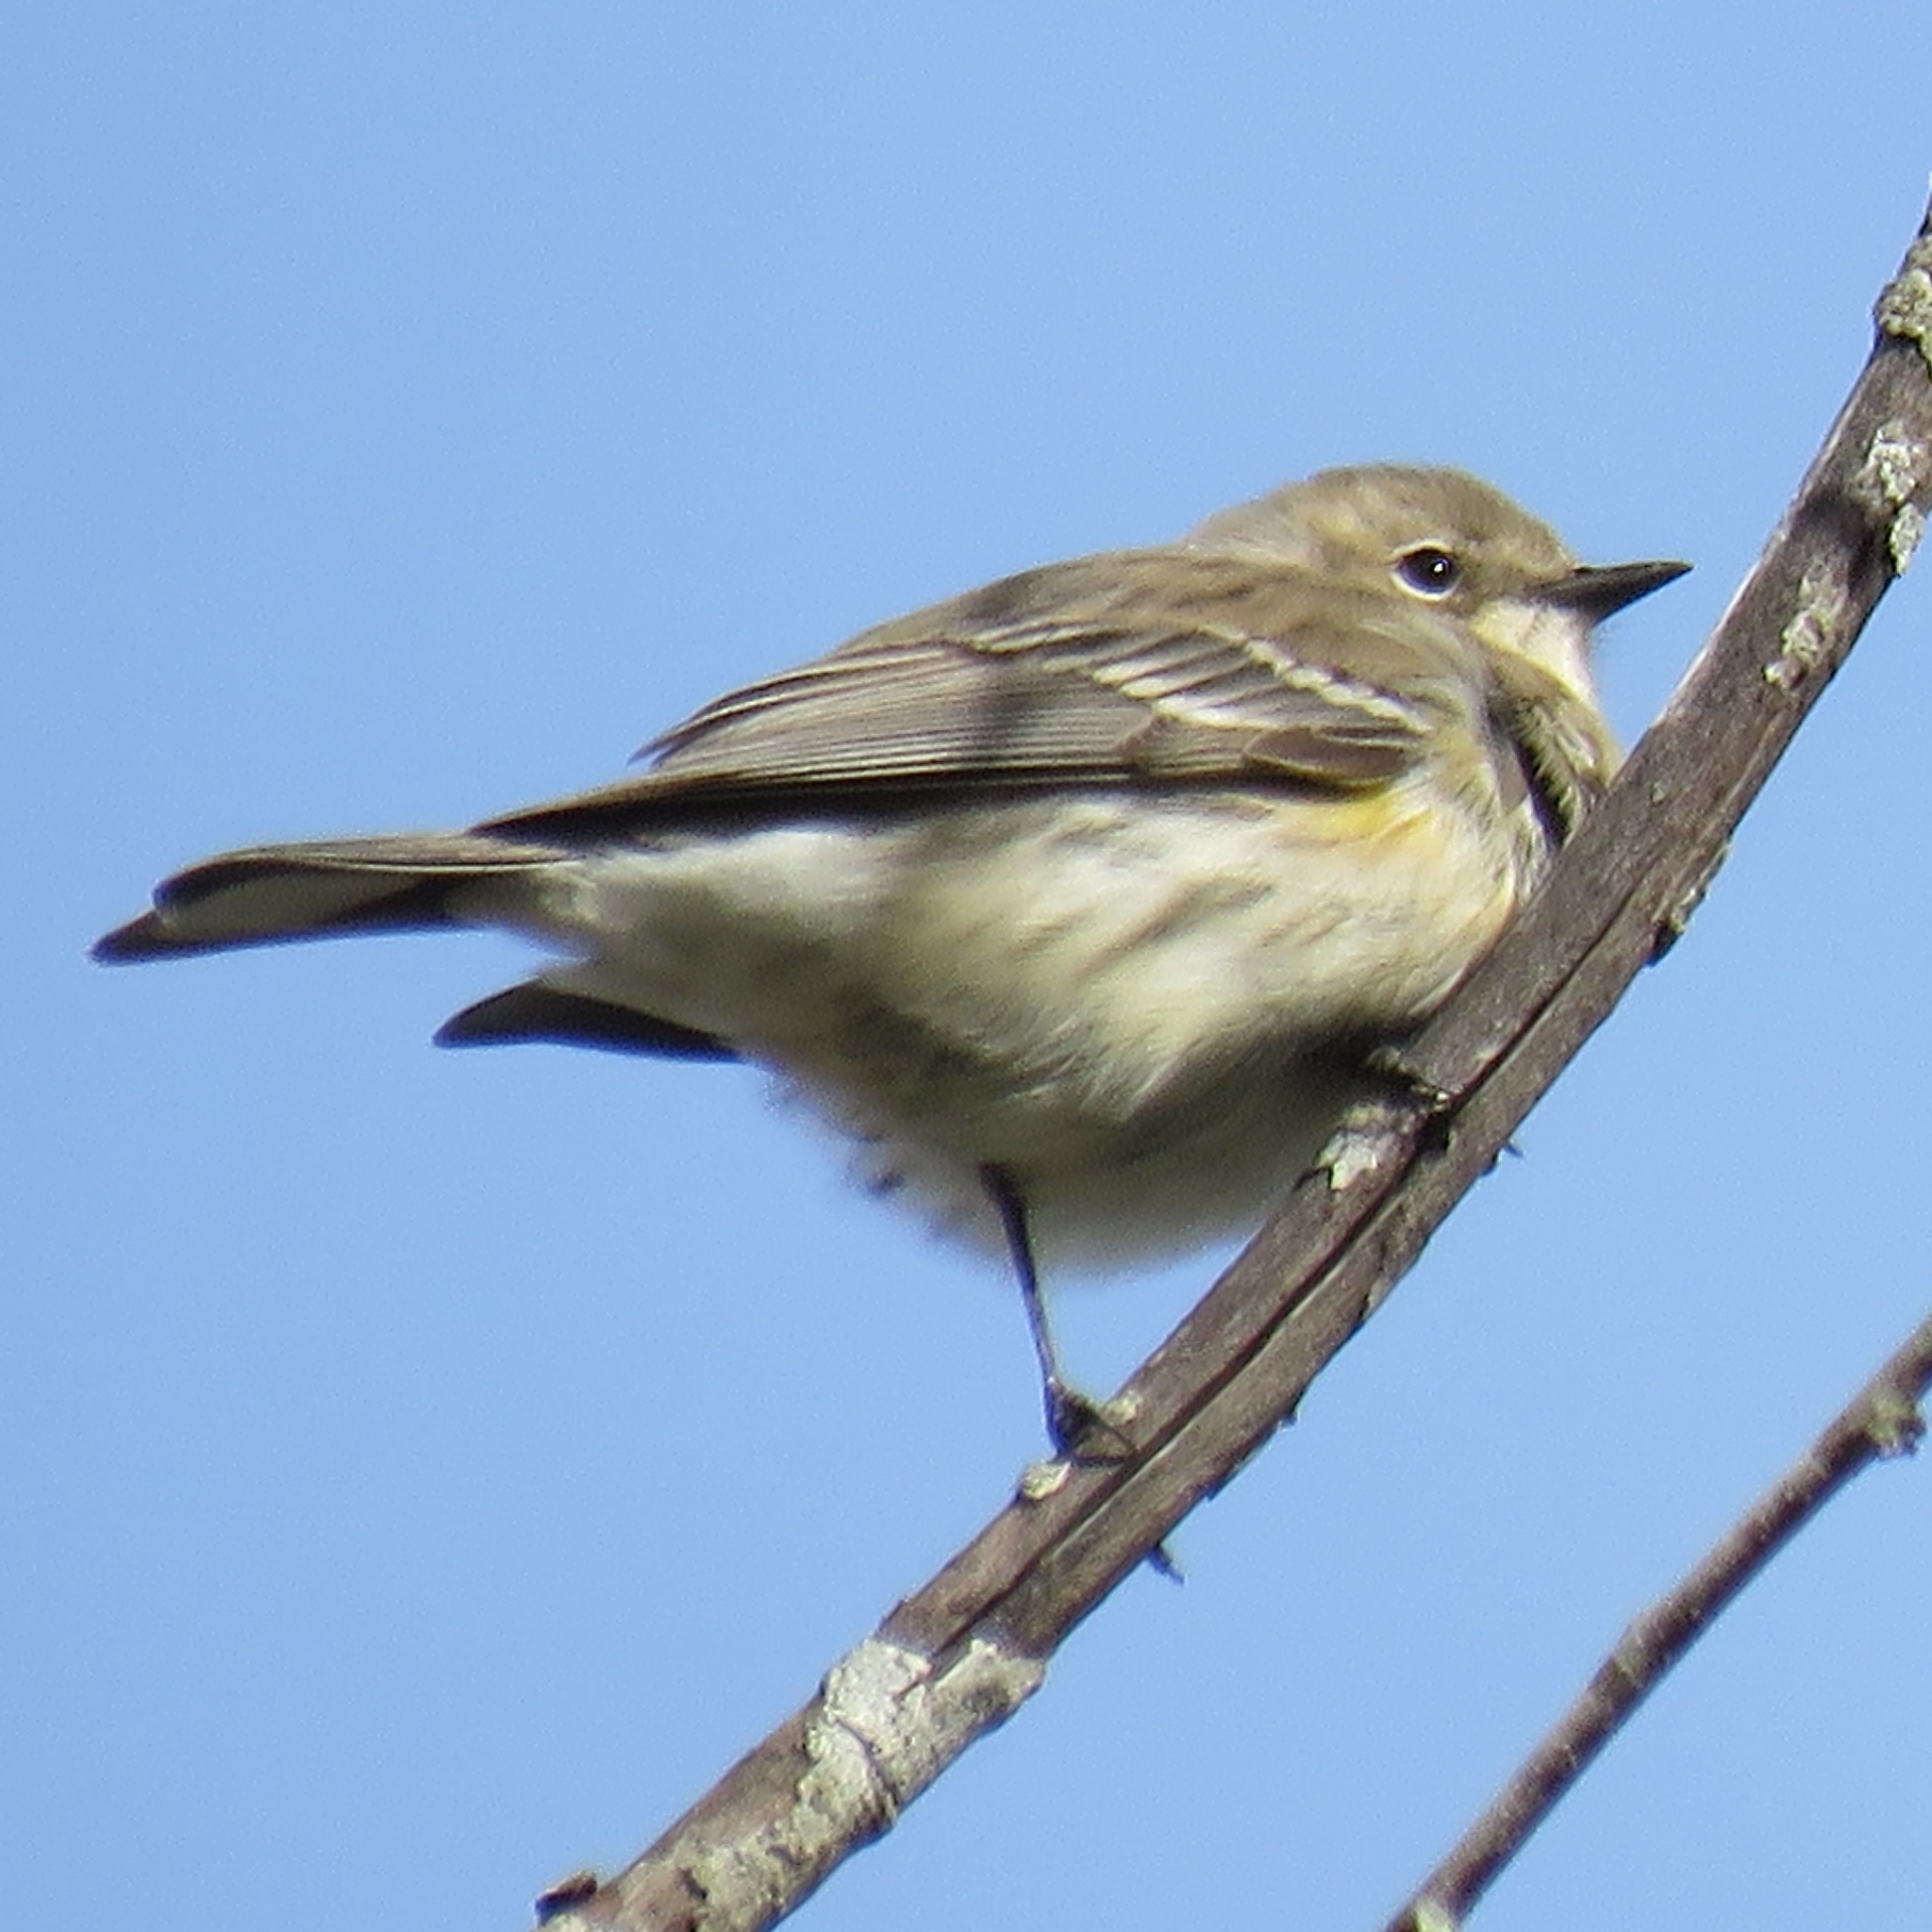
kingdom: Animalia
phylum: Chordata
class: Aves
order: Passeriformes
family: Parulidae
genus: Setophaga
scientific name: Setophaga coronata
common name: Myrtle warbler
